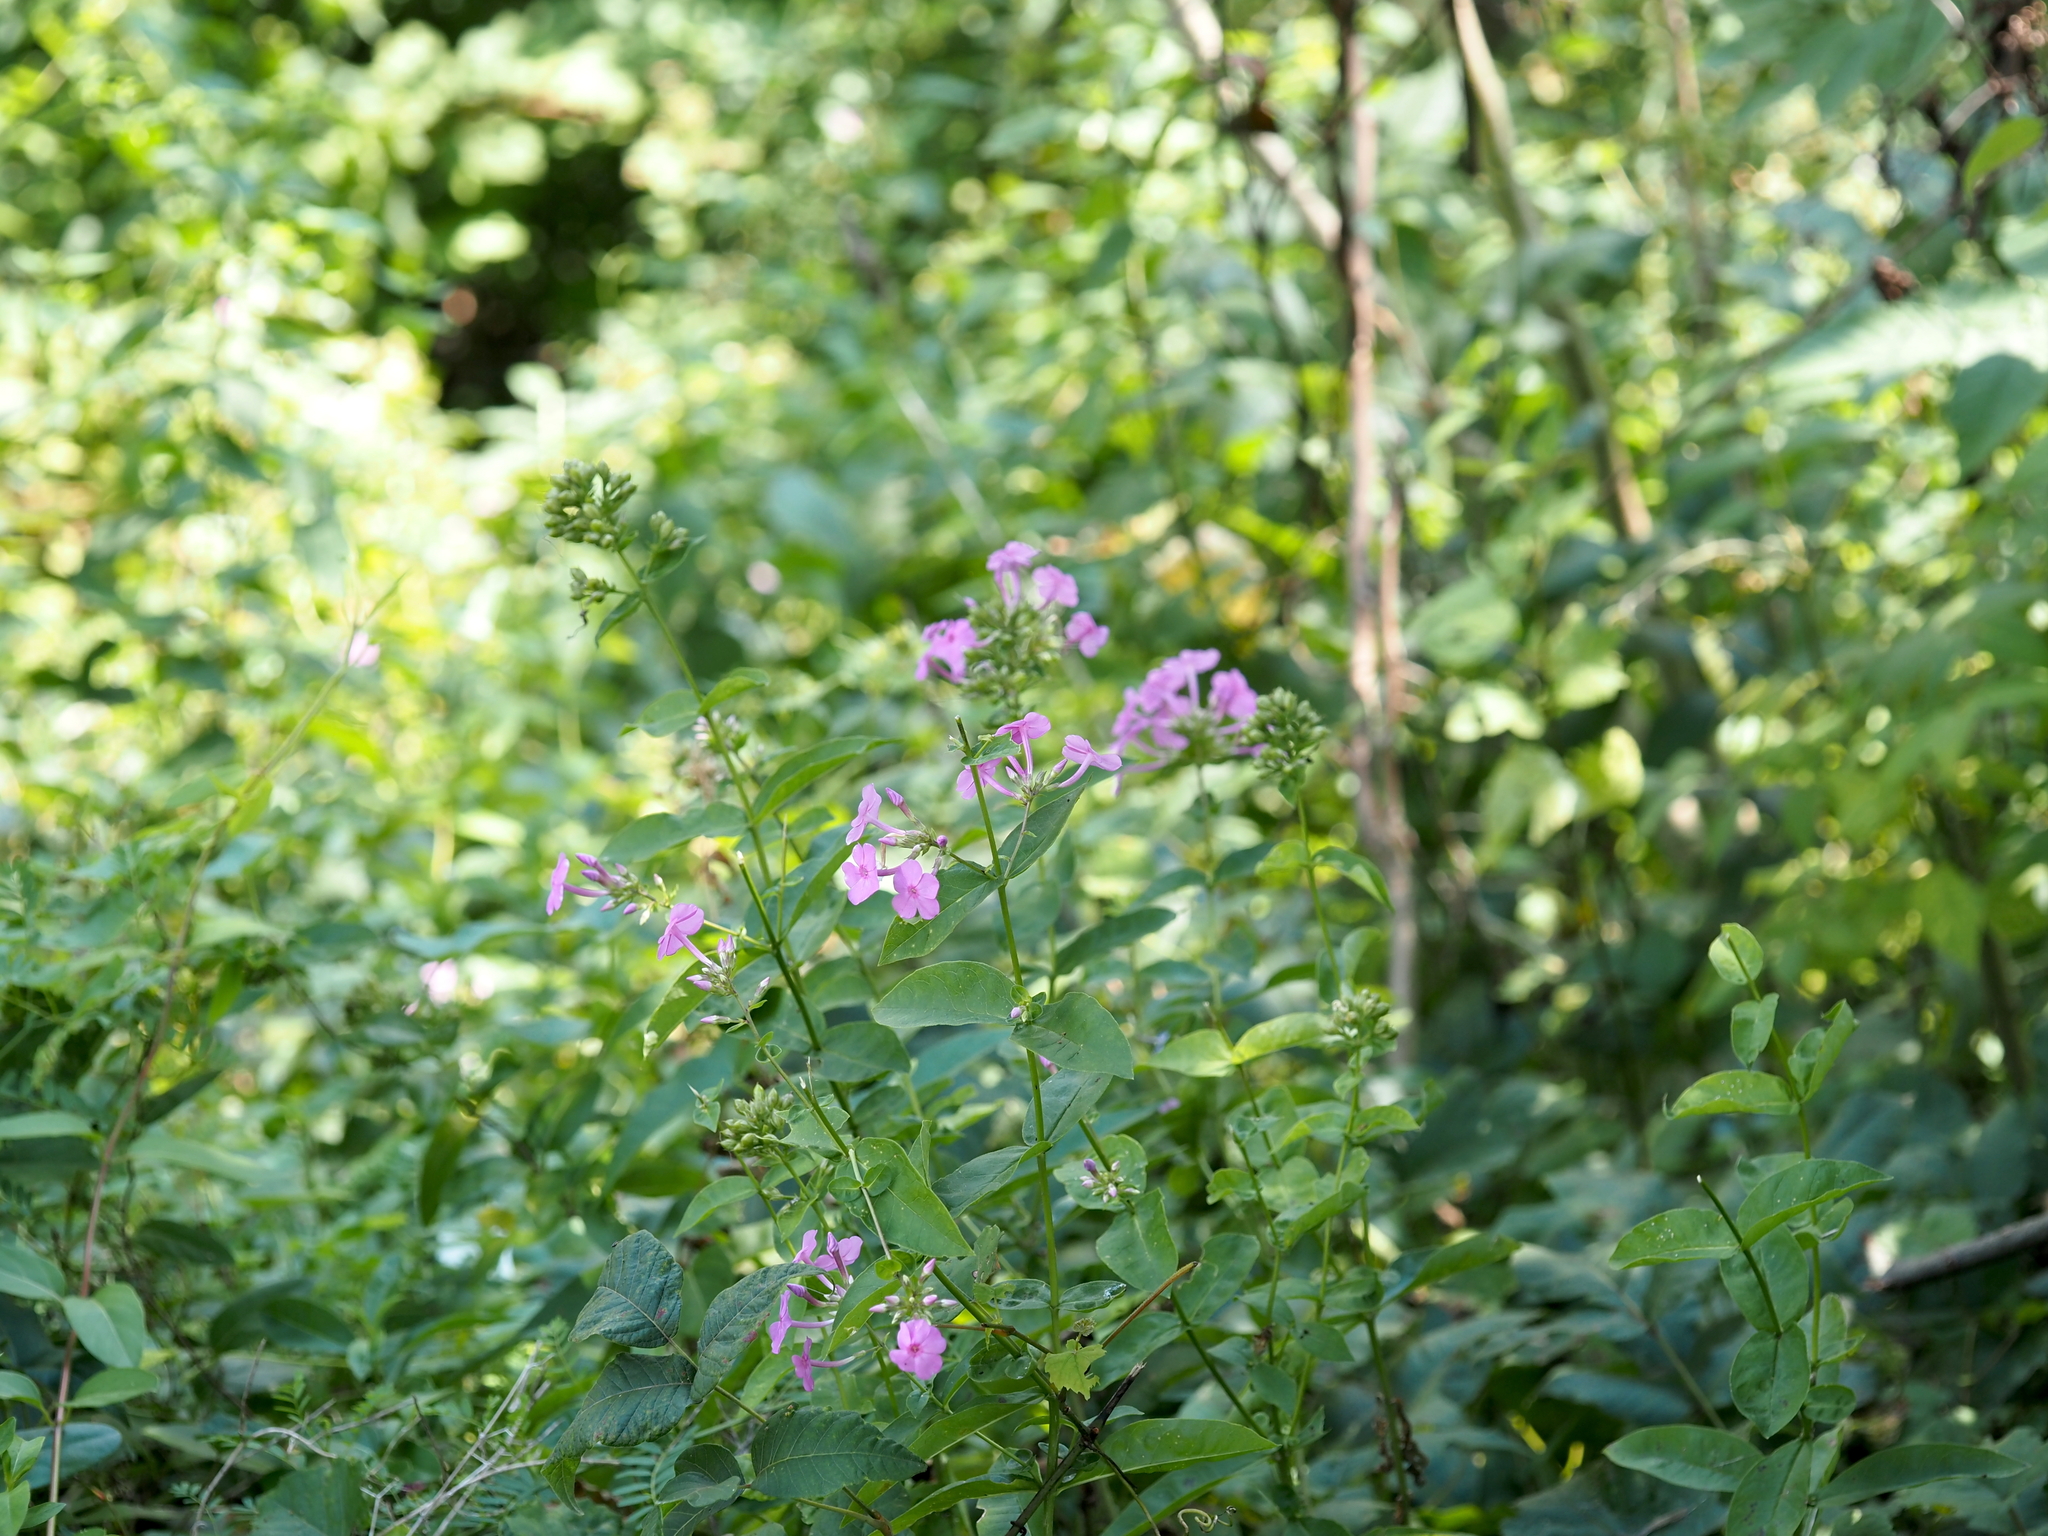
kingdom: Plantae
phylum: Tracheophyta
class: Magnoliopsida
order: Ericales
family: Polemoniaceae
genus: Phlox
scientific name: Phlox paniculata
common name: Fall phlox
